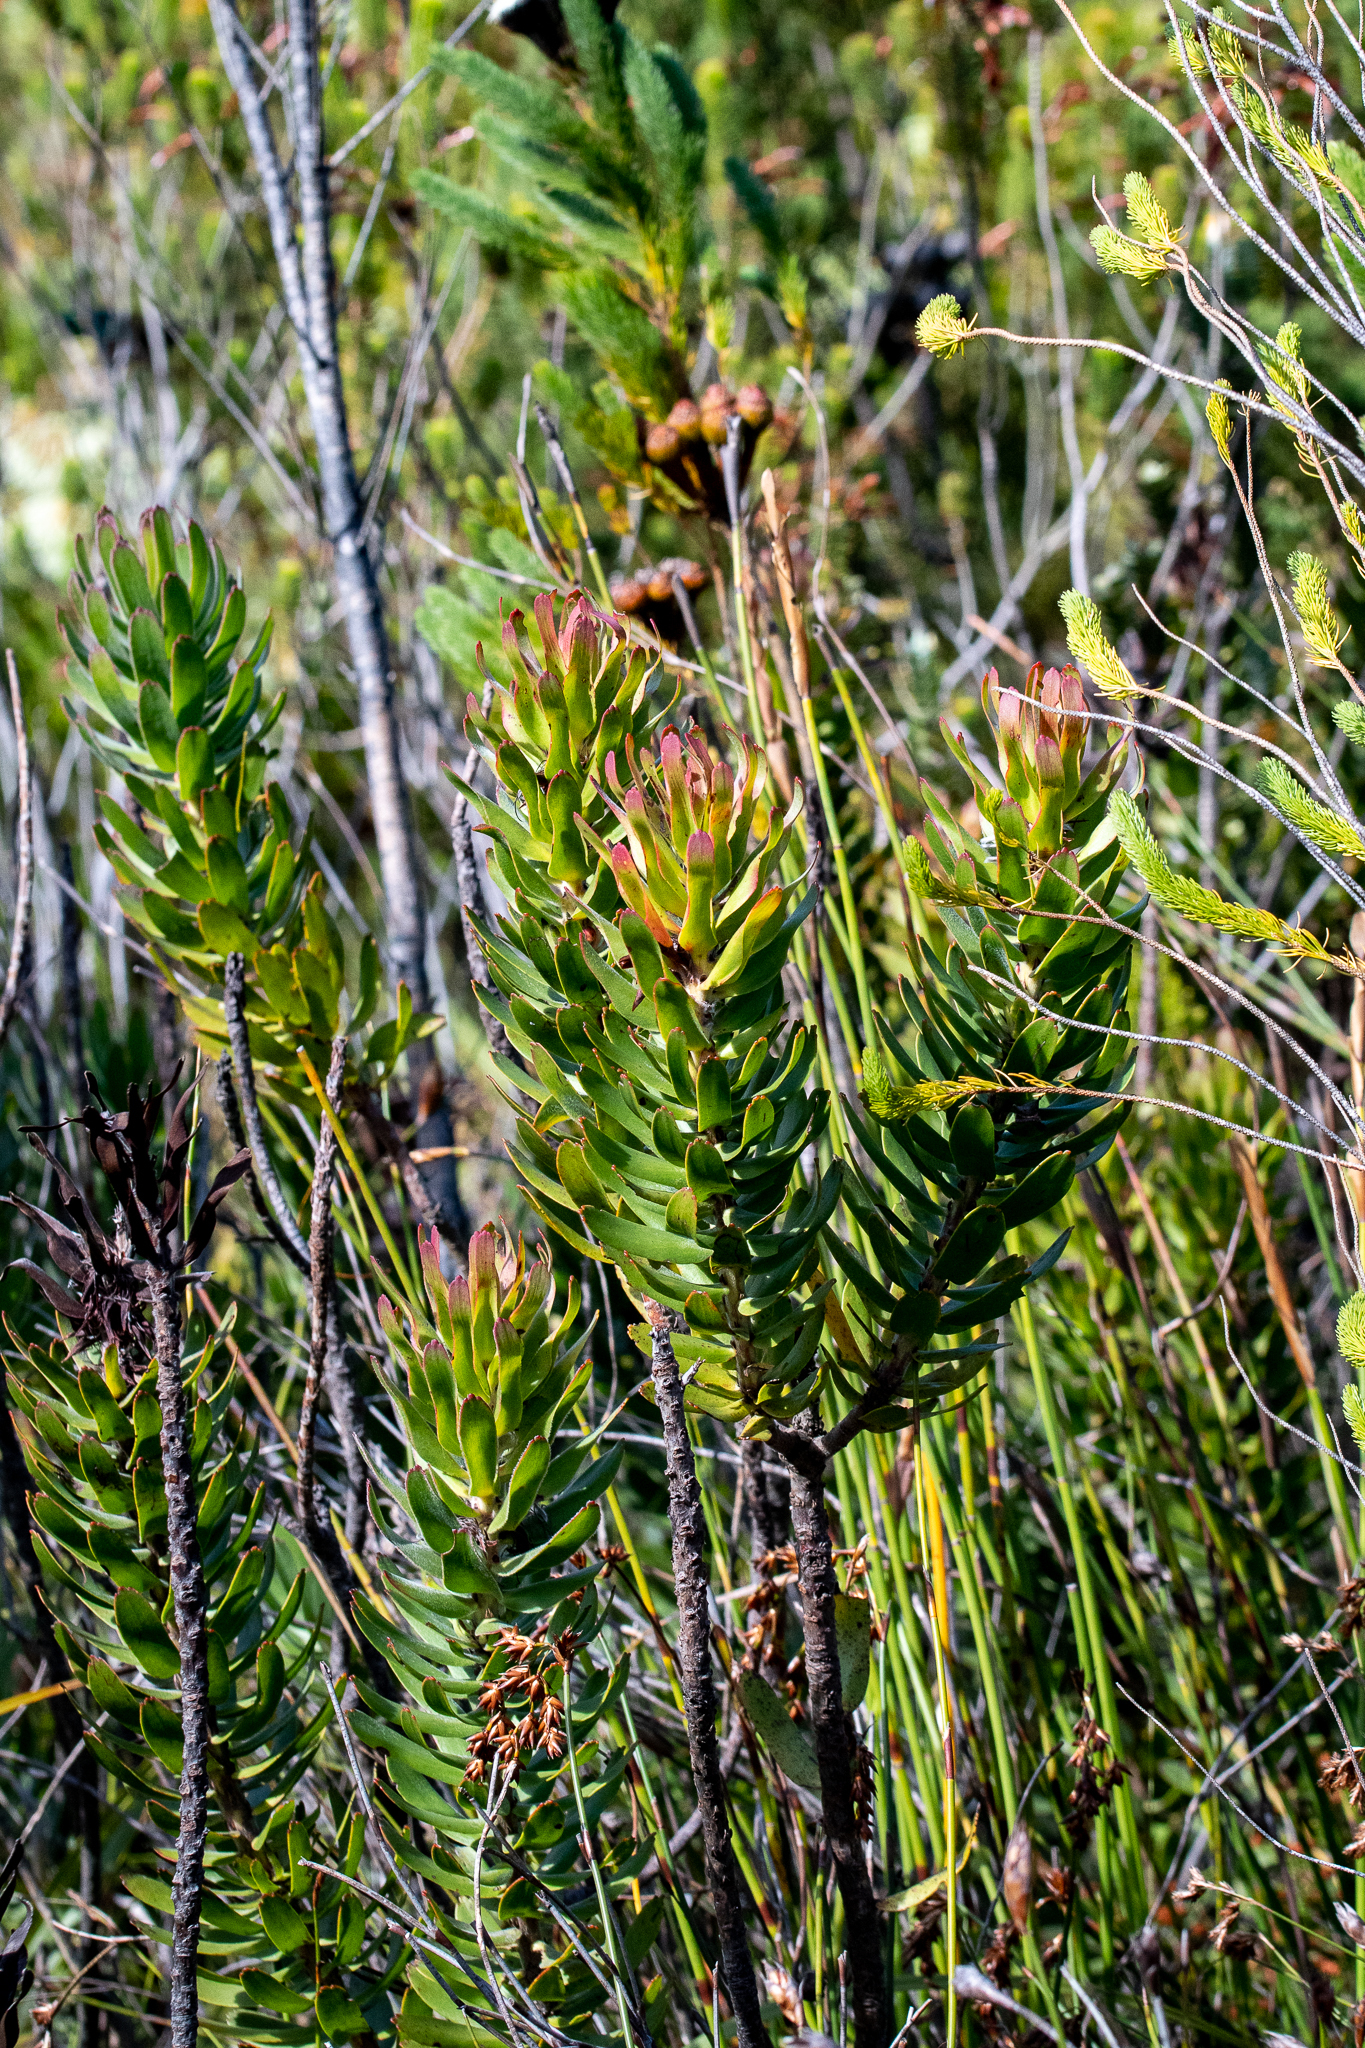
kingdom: Plantae
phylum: Tracheophyta
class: Magnoliopsida
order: Proteales
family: Proteaceae
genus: Mimetes
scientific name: Mimetes cucullatus
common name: Common pagoda
